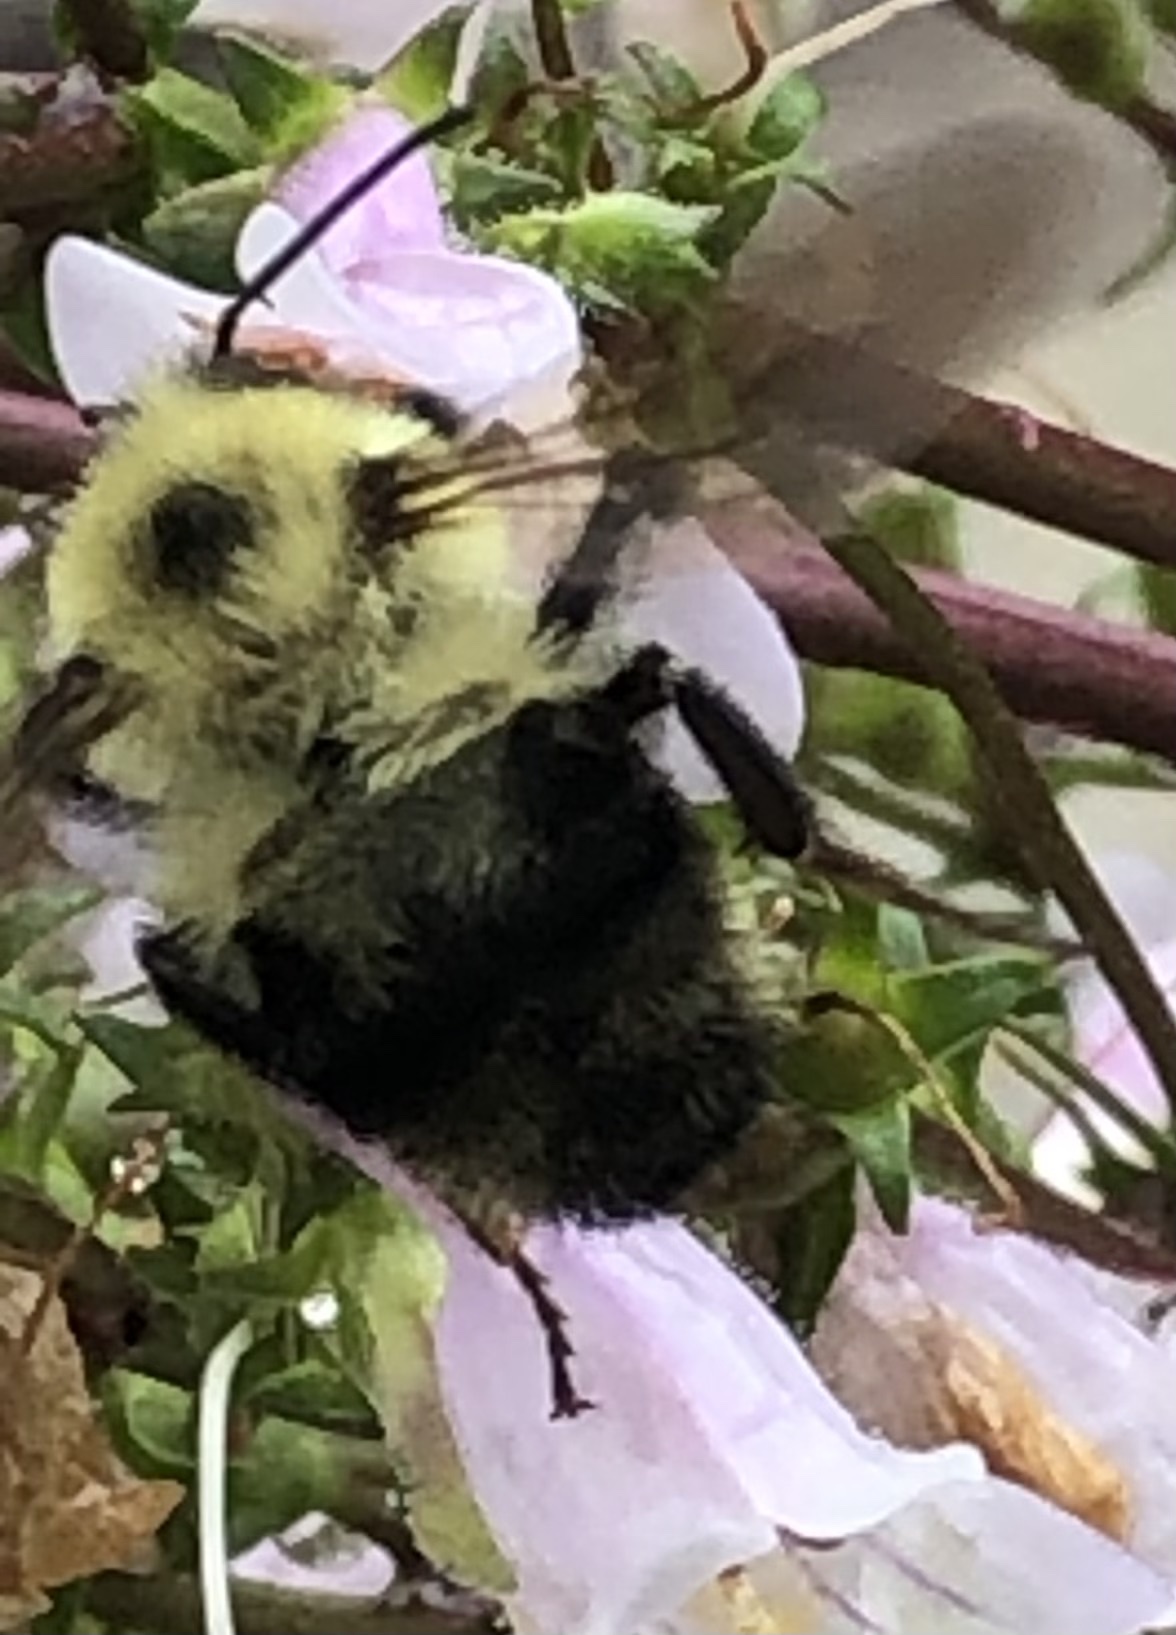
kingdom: Animalia
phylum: Arthropoda
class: Insecta
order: Hymenoptera
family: Apidae
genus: Bombus
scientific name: Bombus bimaculatus
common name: Two-spotted bumble bee
